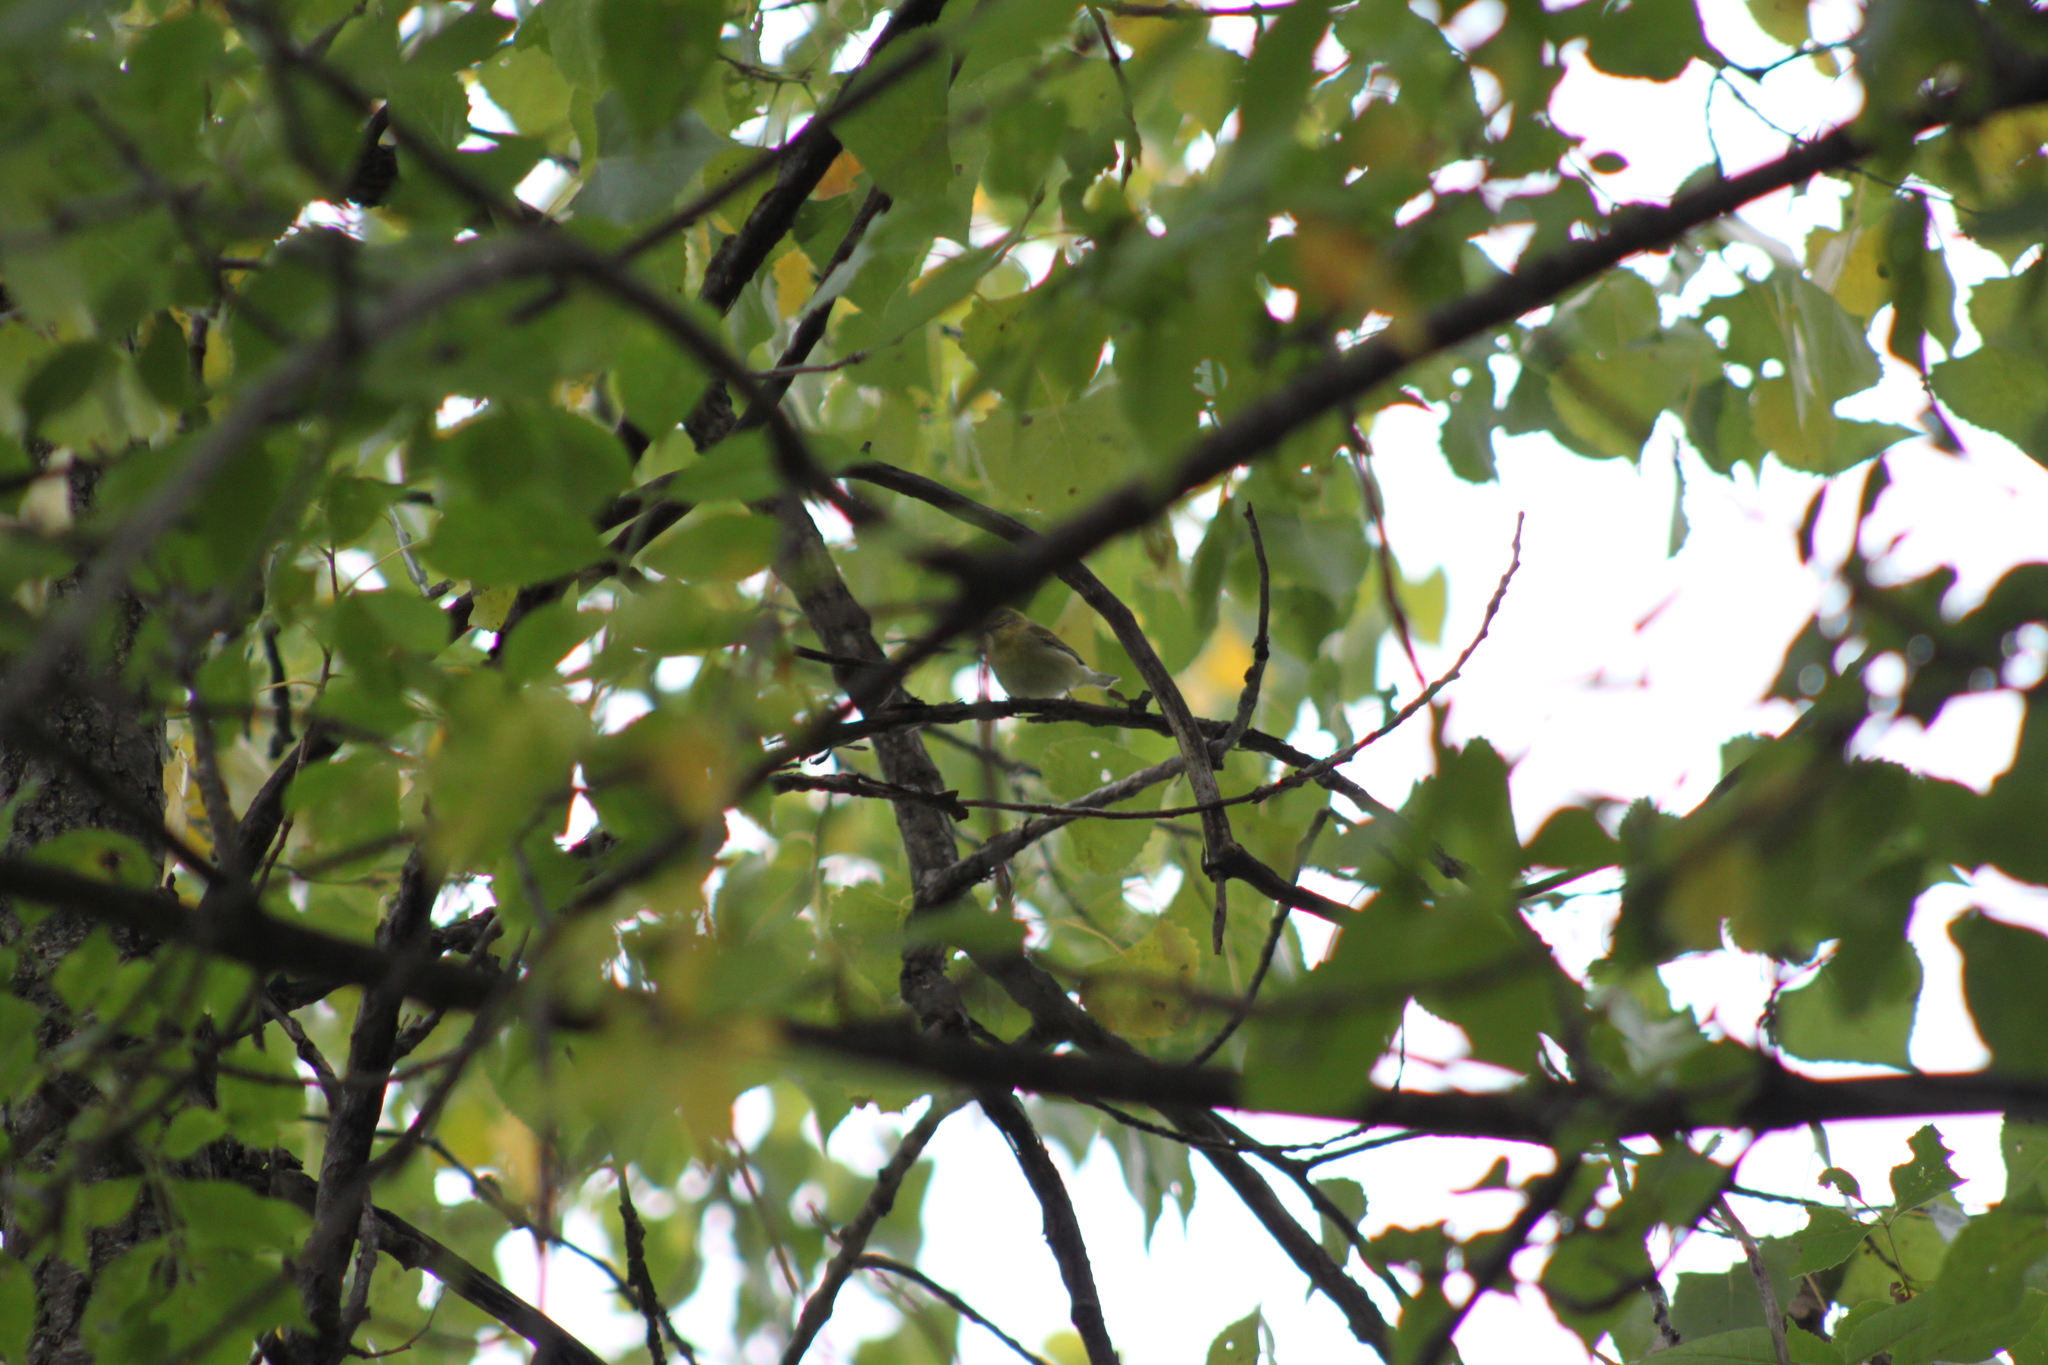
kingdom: Animalia
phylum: Chordata
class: Aves
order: Passeriformes
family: Parulidae
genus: Leiothlypis
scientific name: Leiothlypis peregrina
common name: Tennessee warbler
